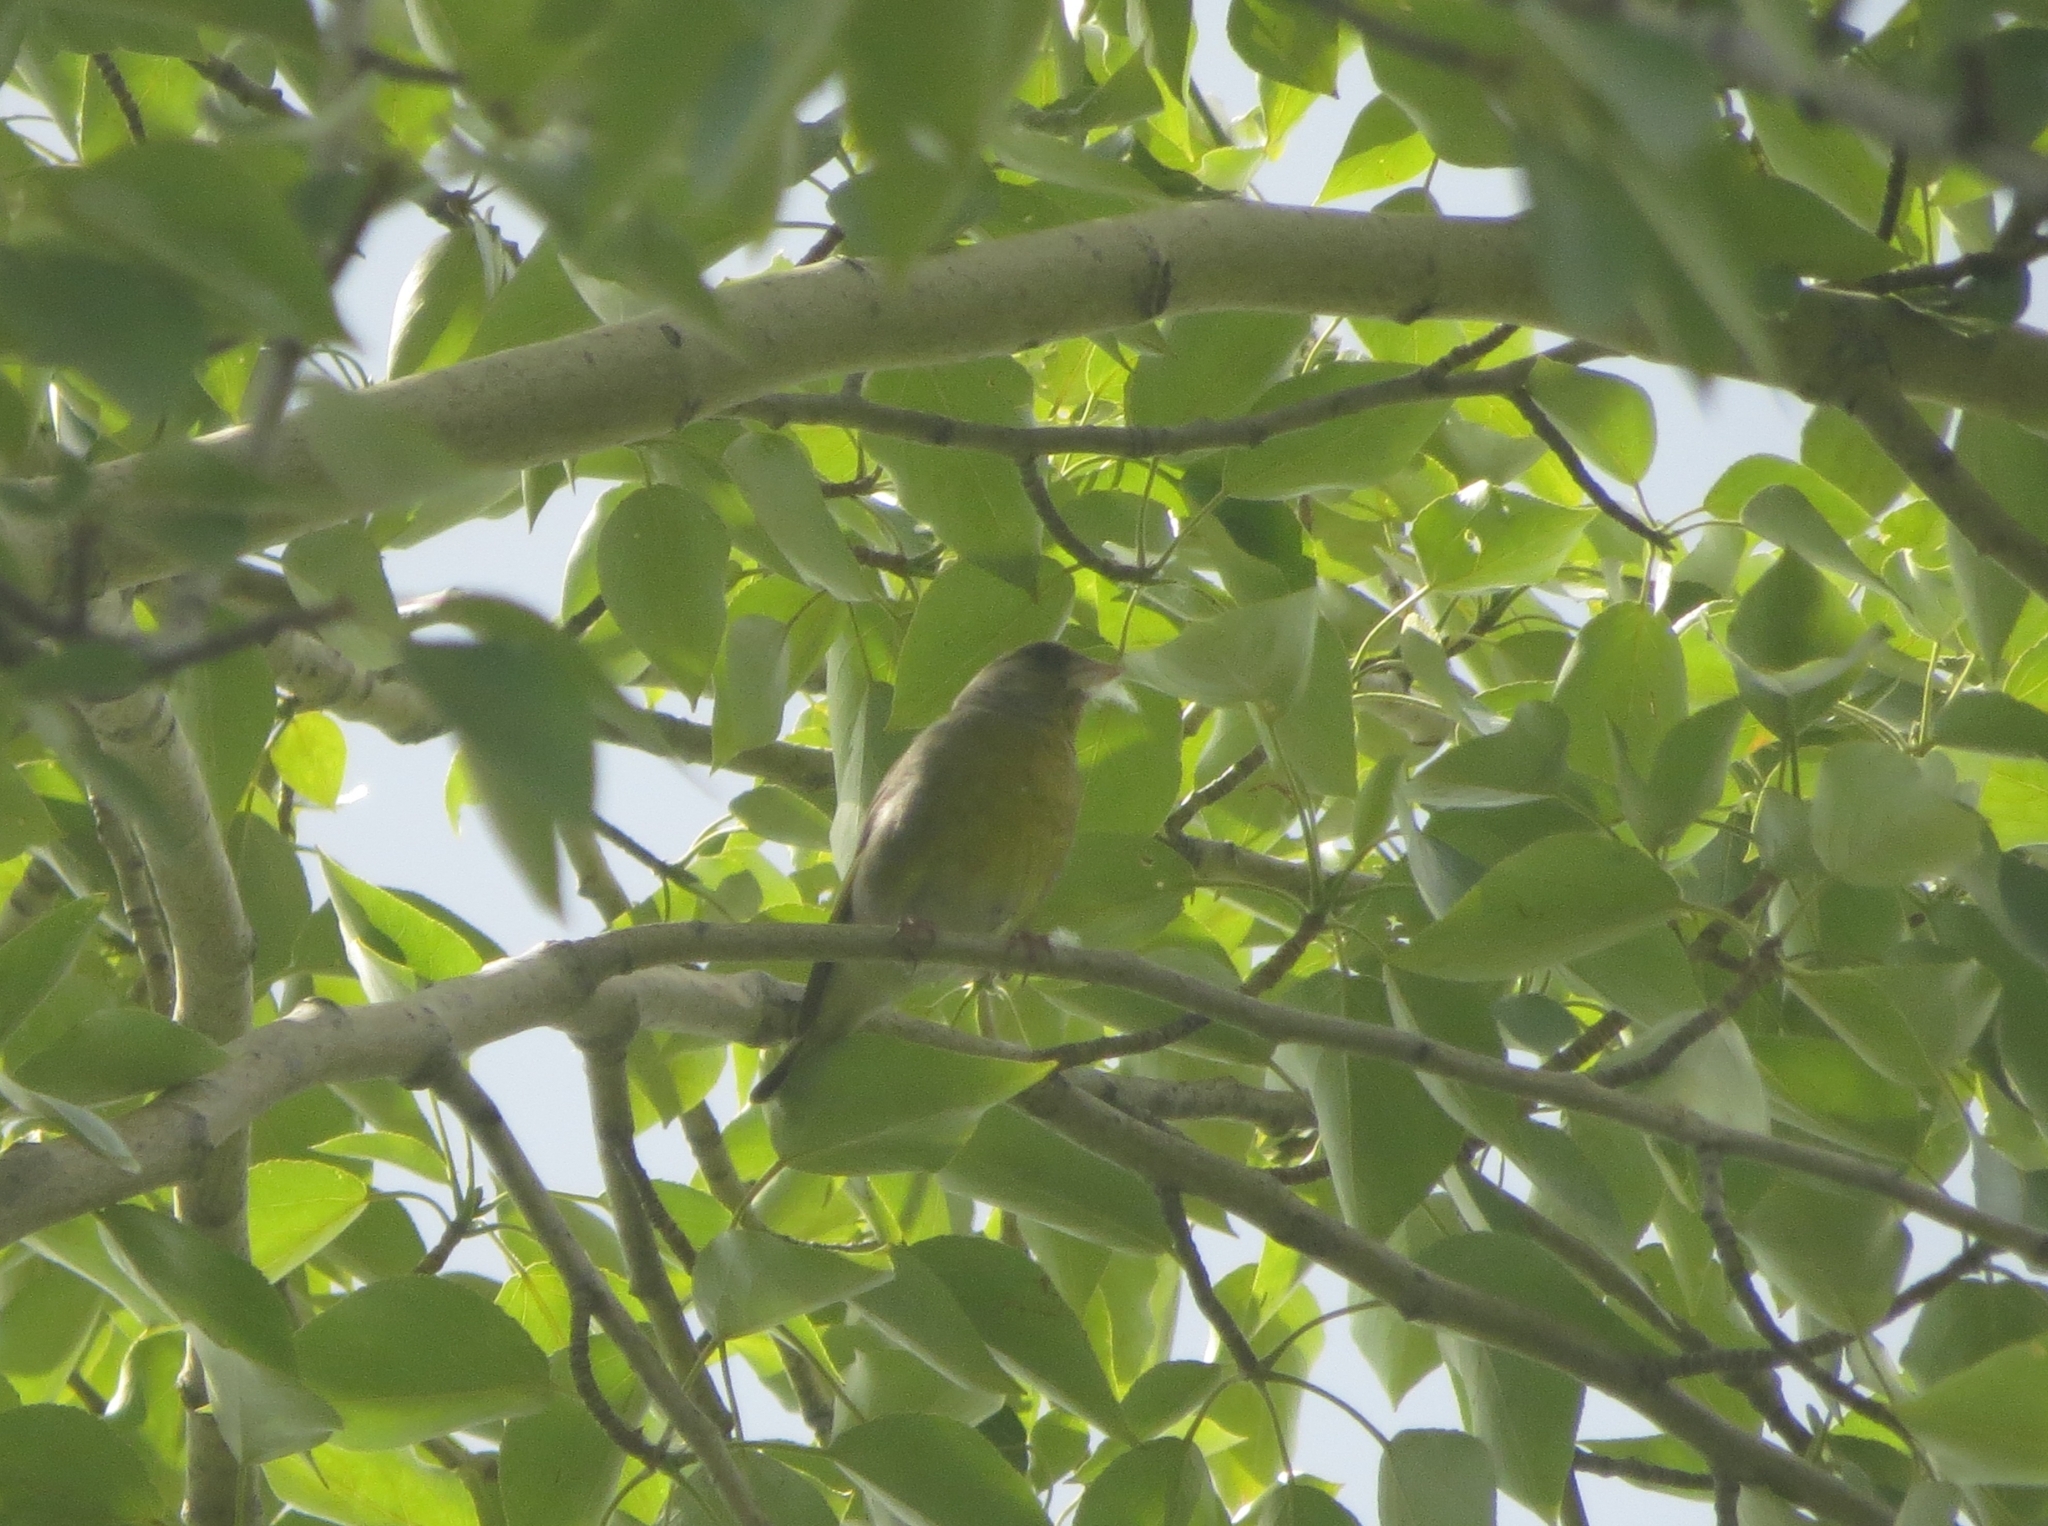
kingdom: Plantae
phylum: Tracheophyta
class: Liliopsida
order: Poales
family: Poaceae
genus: Chloris
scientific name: Chloris chloris
